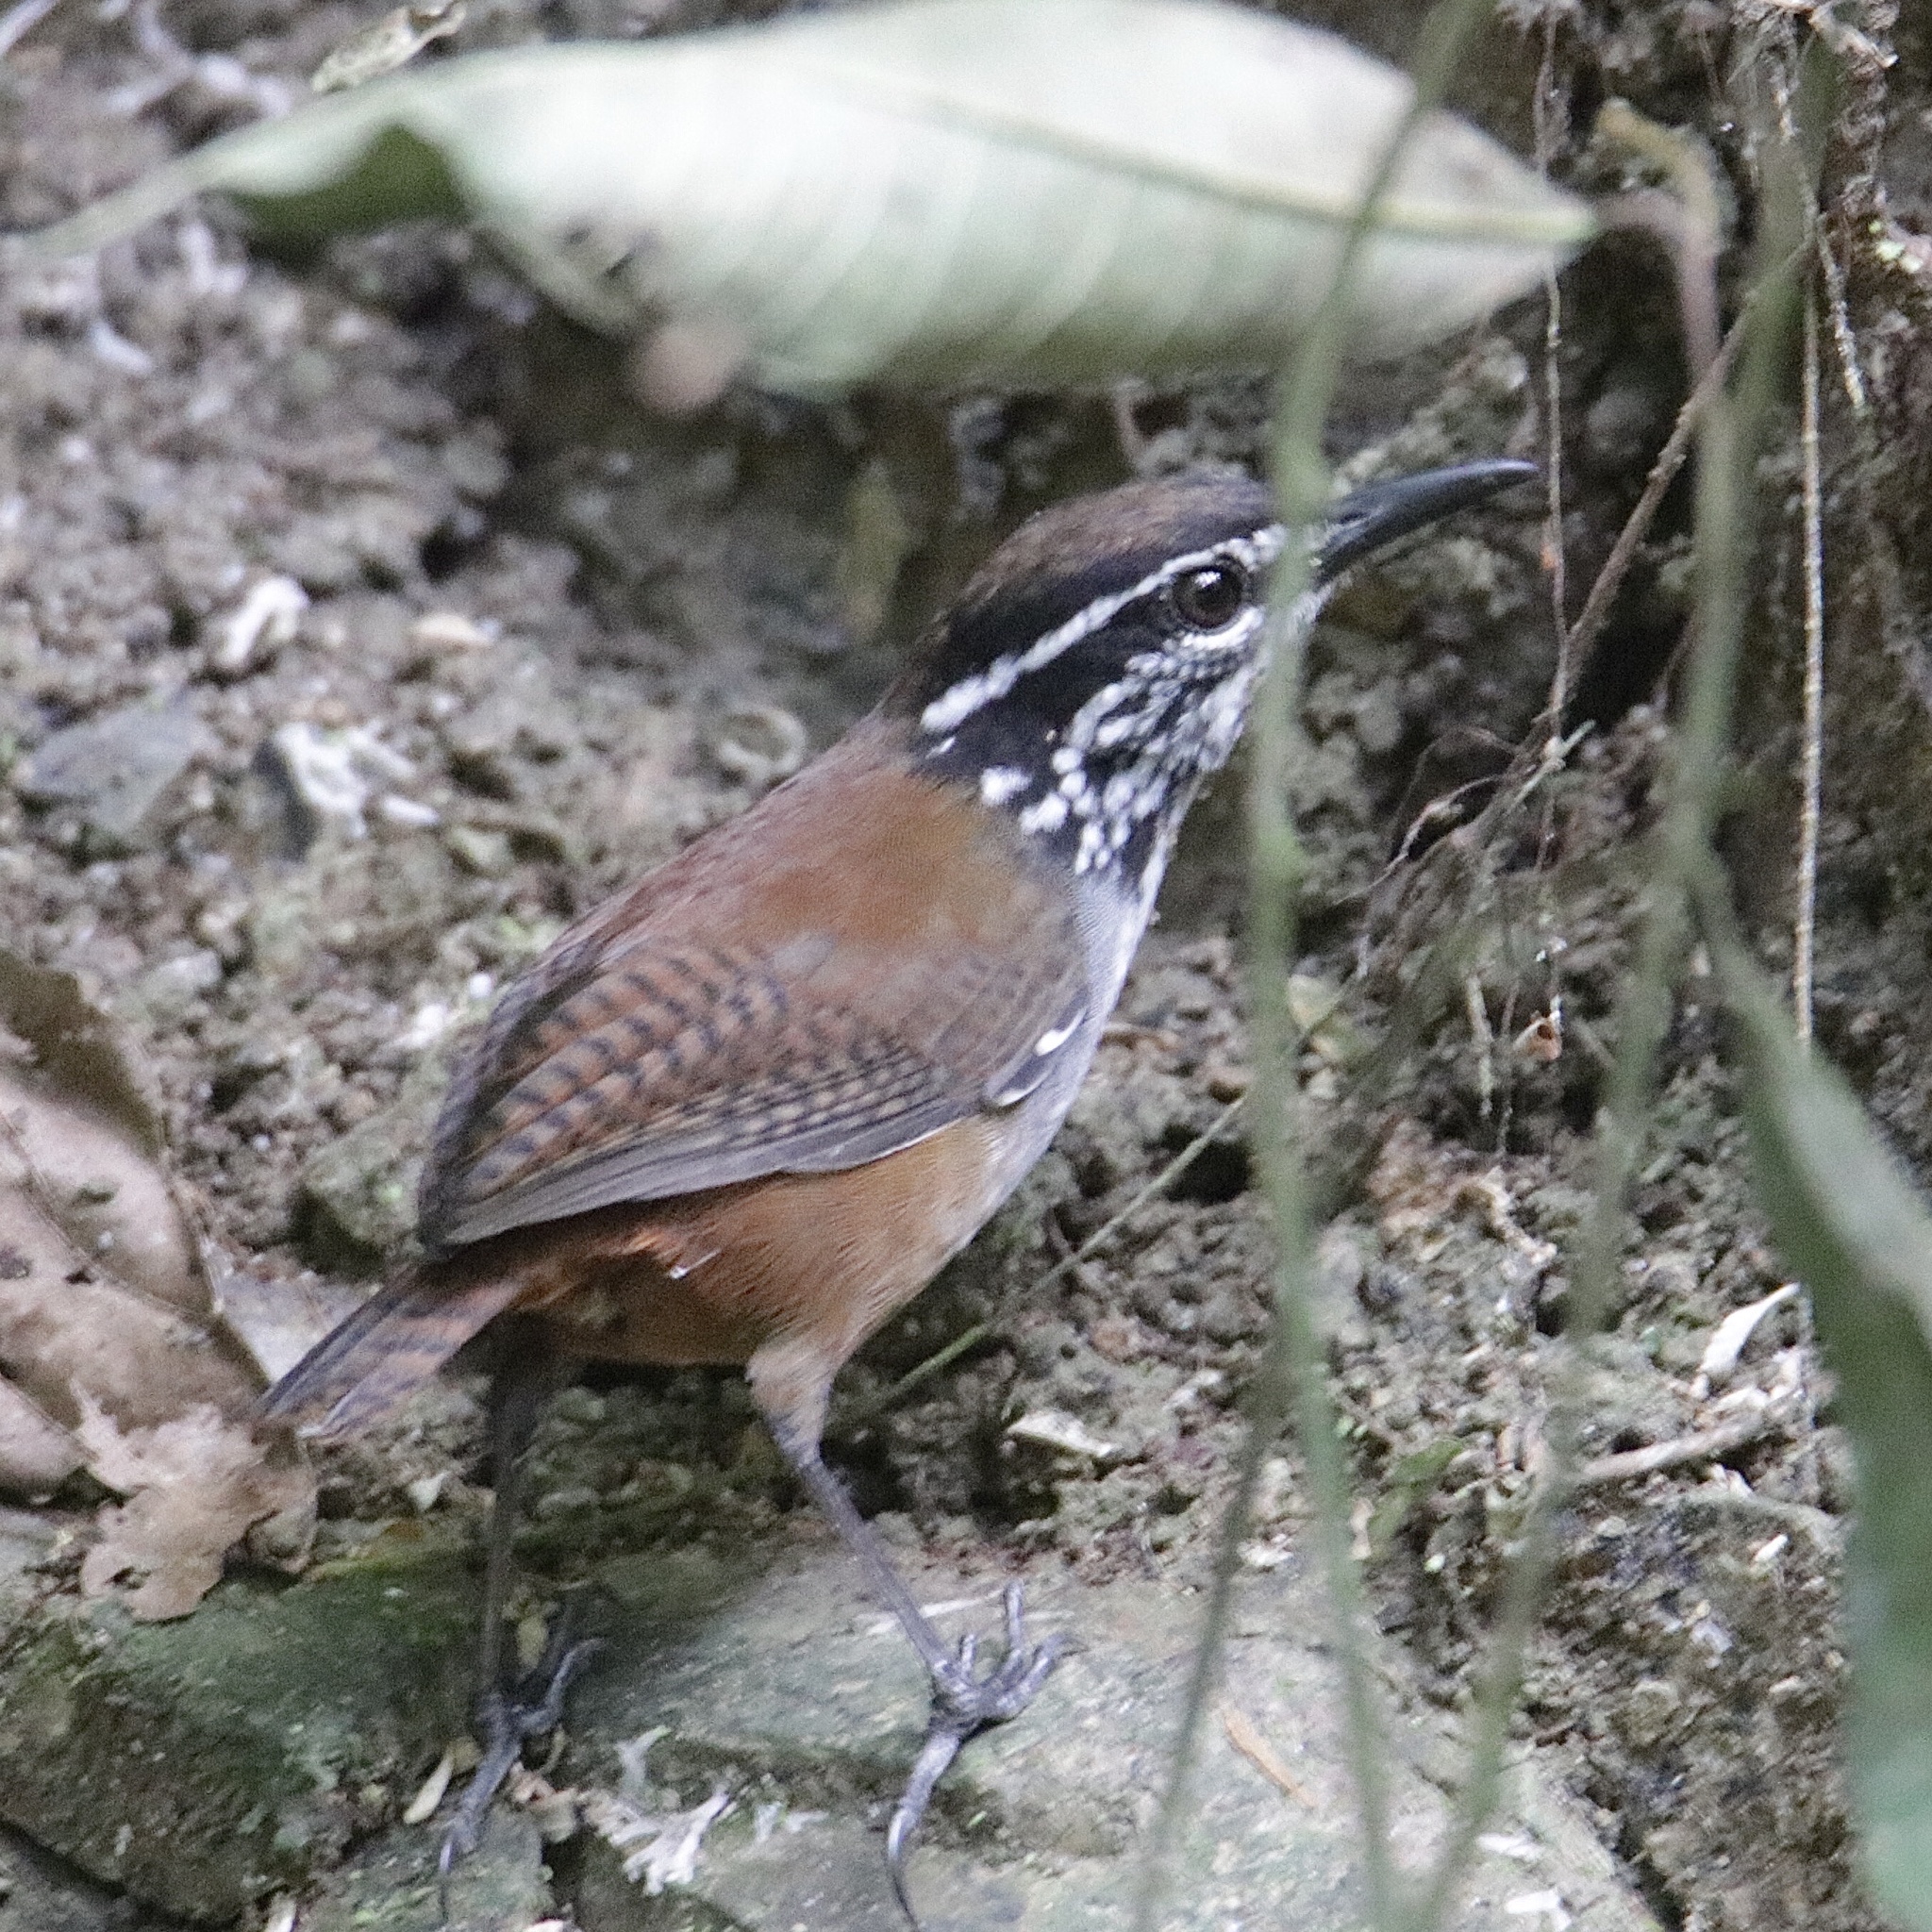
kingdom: Animalia
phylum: Chordata
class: Aves
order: Passeriformes
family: Troglodytidae
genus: Henicorhina
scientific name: Henicorhina leucosticta
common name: White-breasted wood-wren
